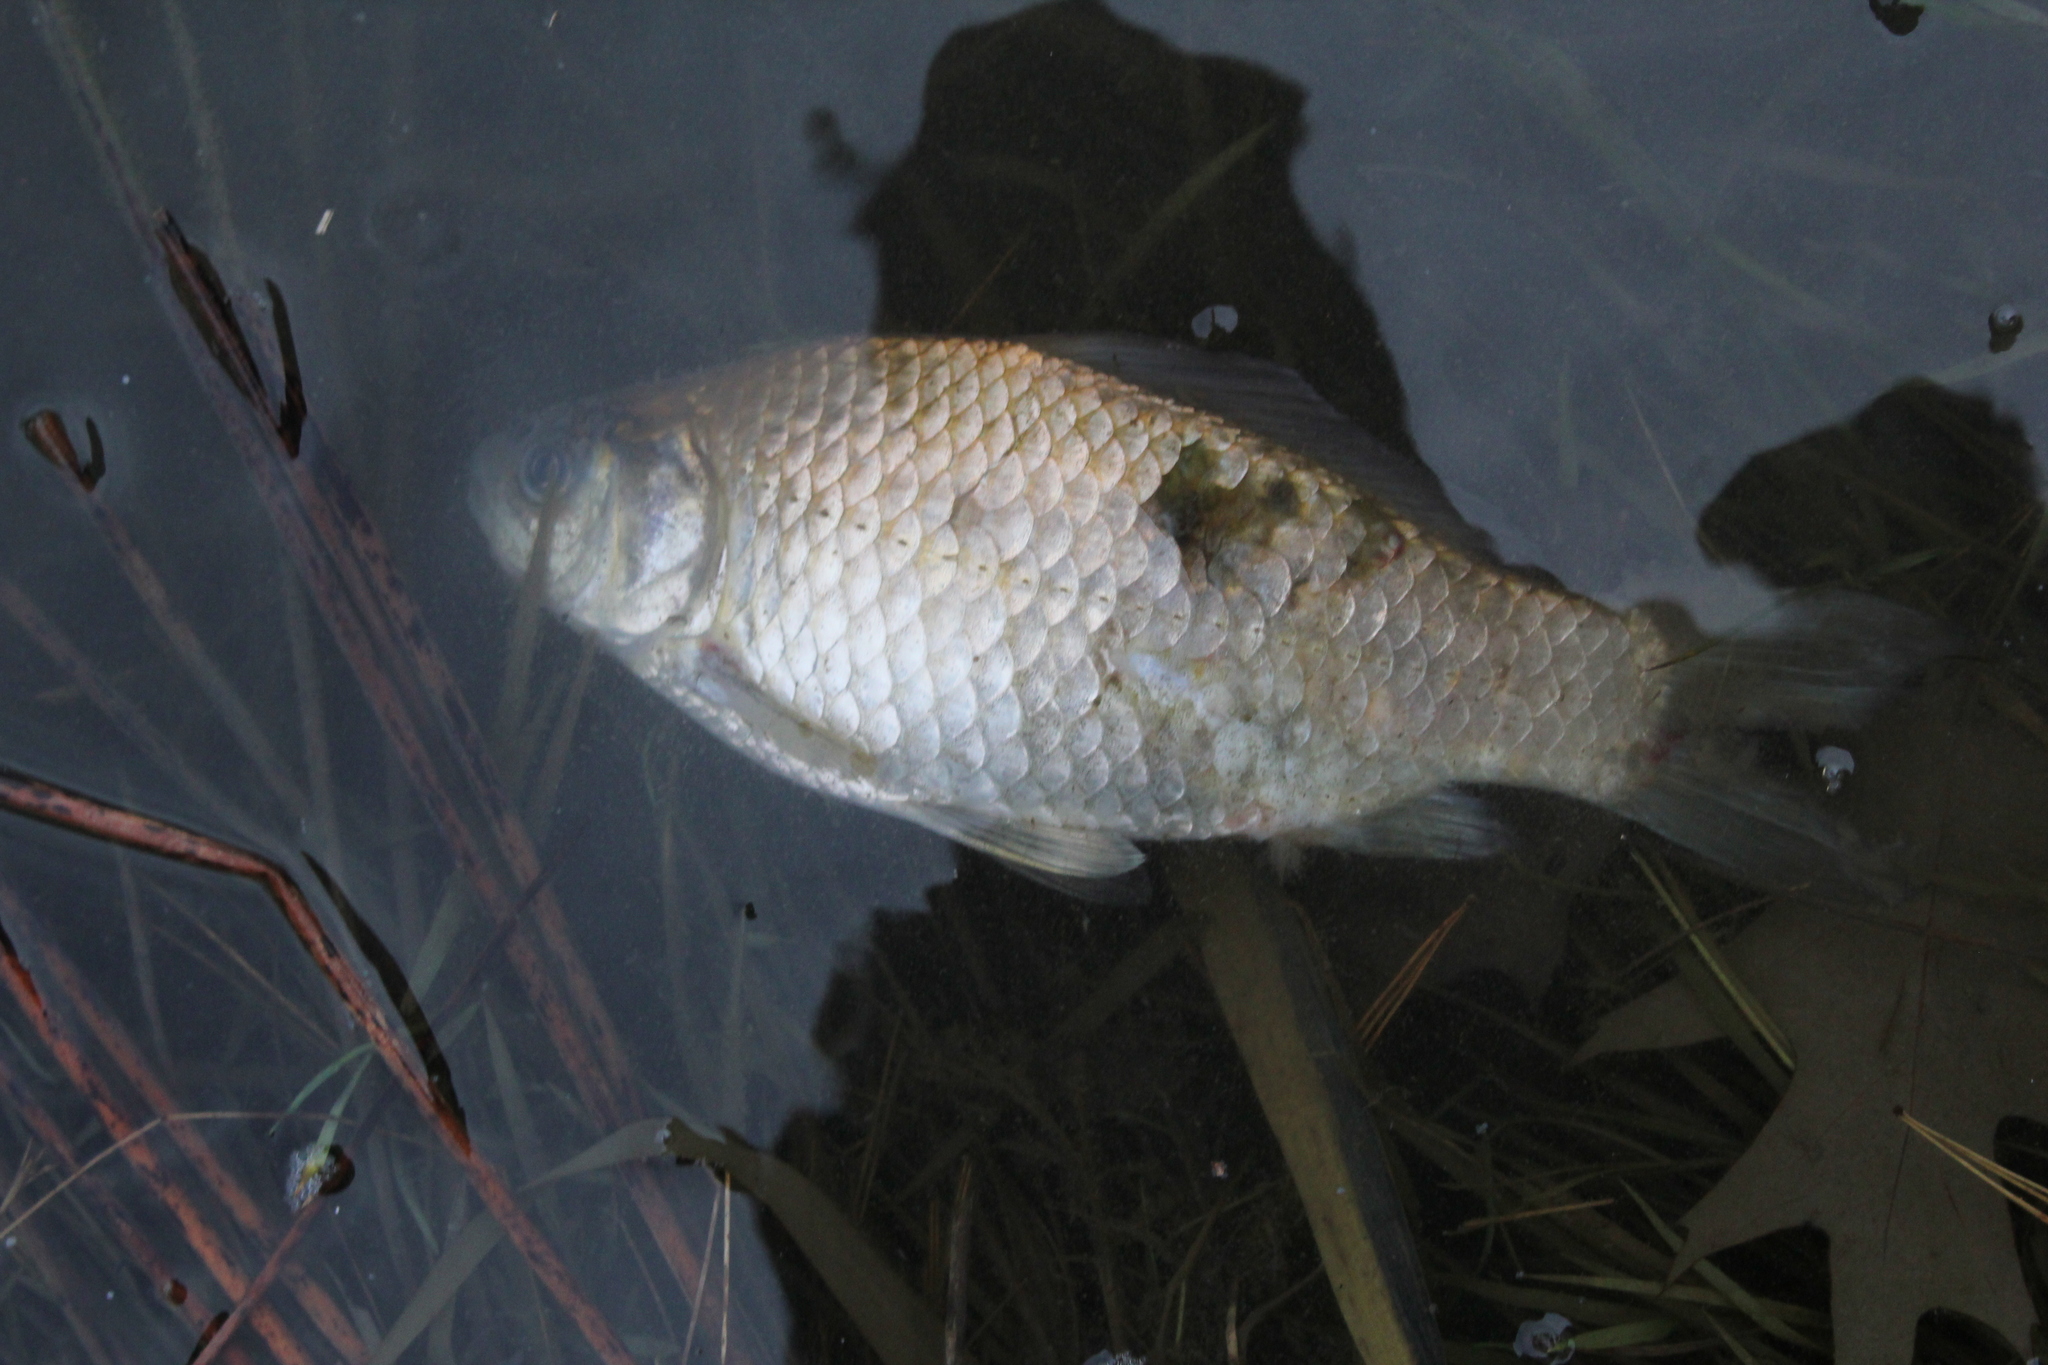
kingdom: Animalia
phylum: Chordata
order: Cypriniformes
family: Cyprinidae
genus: Carassius
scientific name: Carassius auratus
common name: Goldfish
